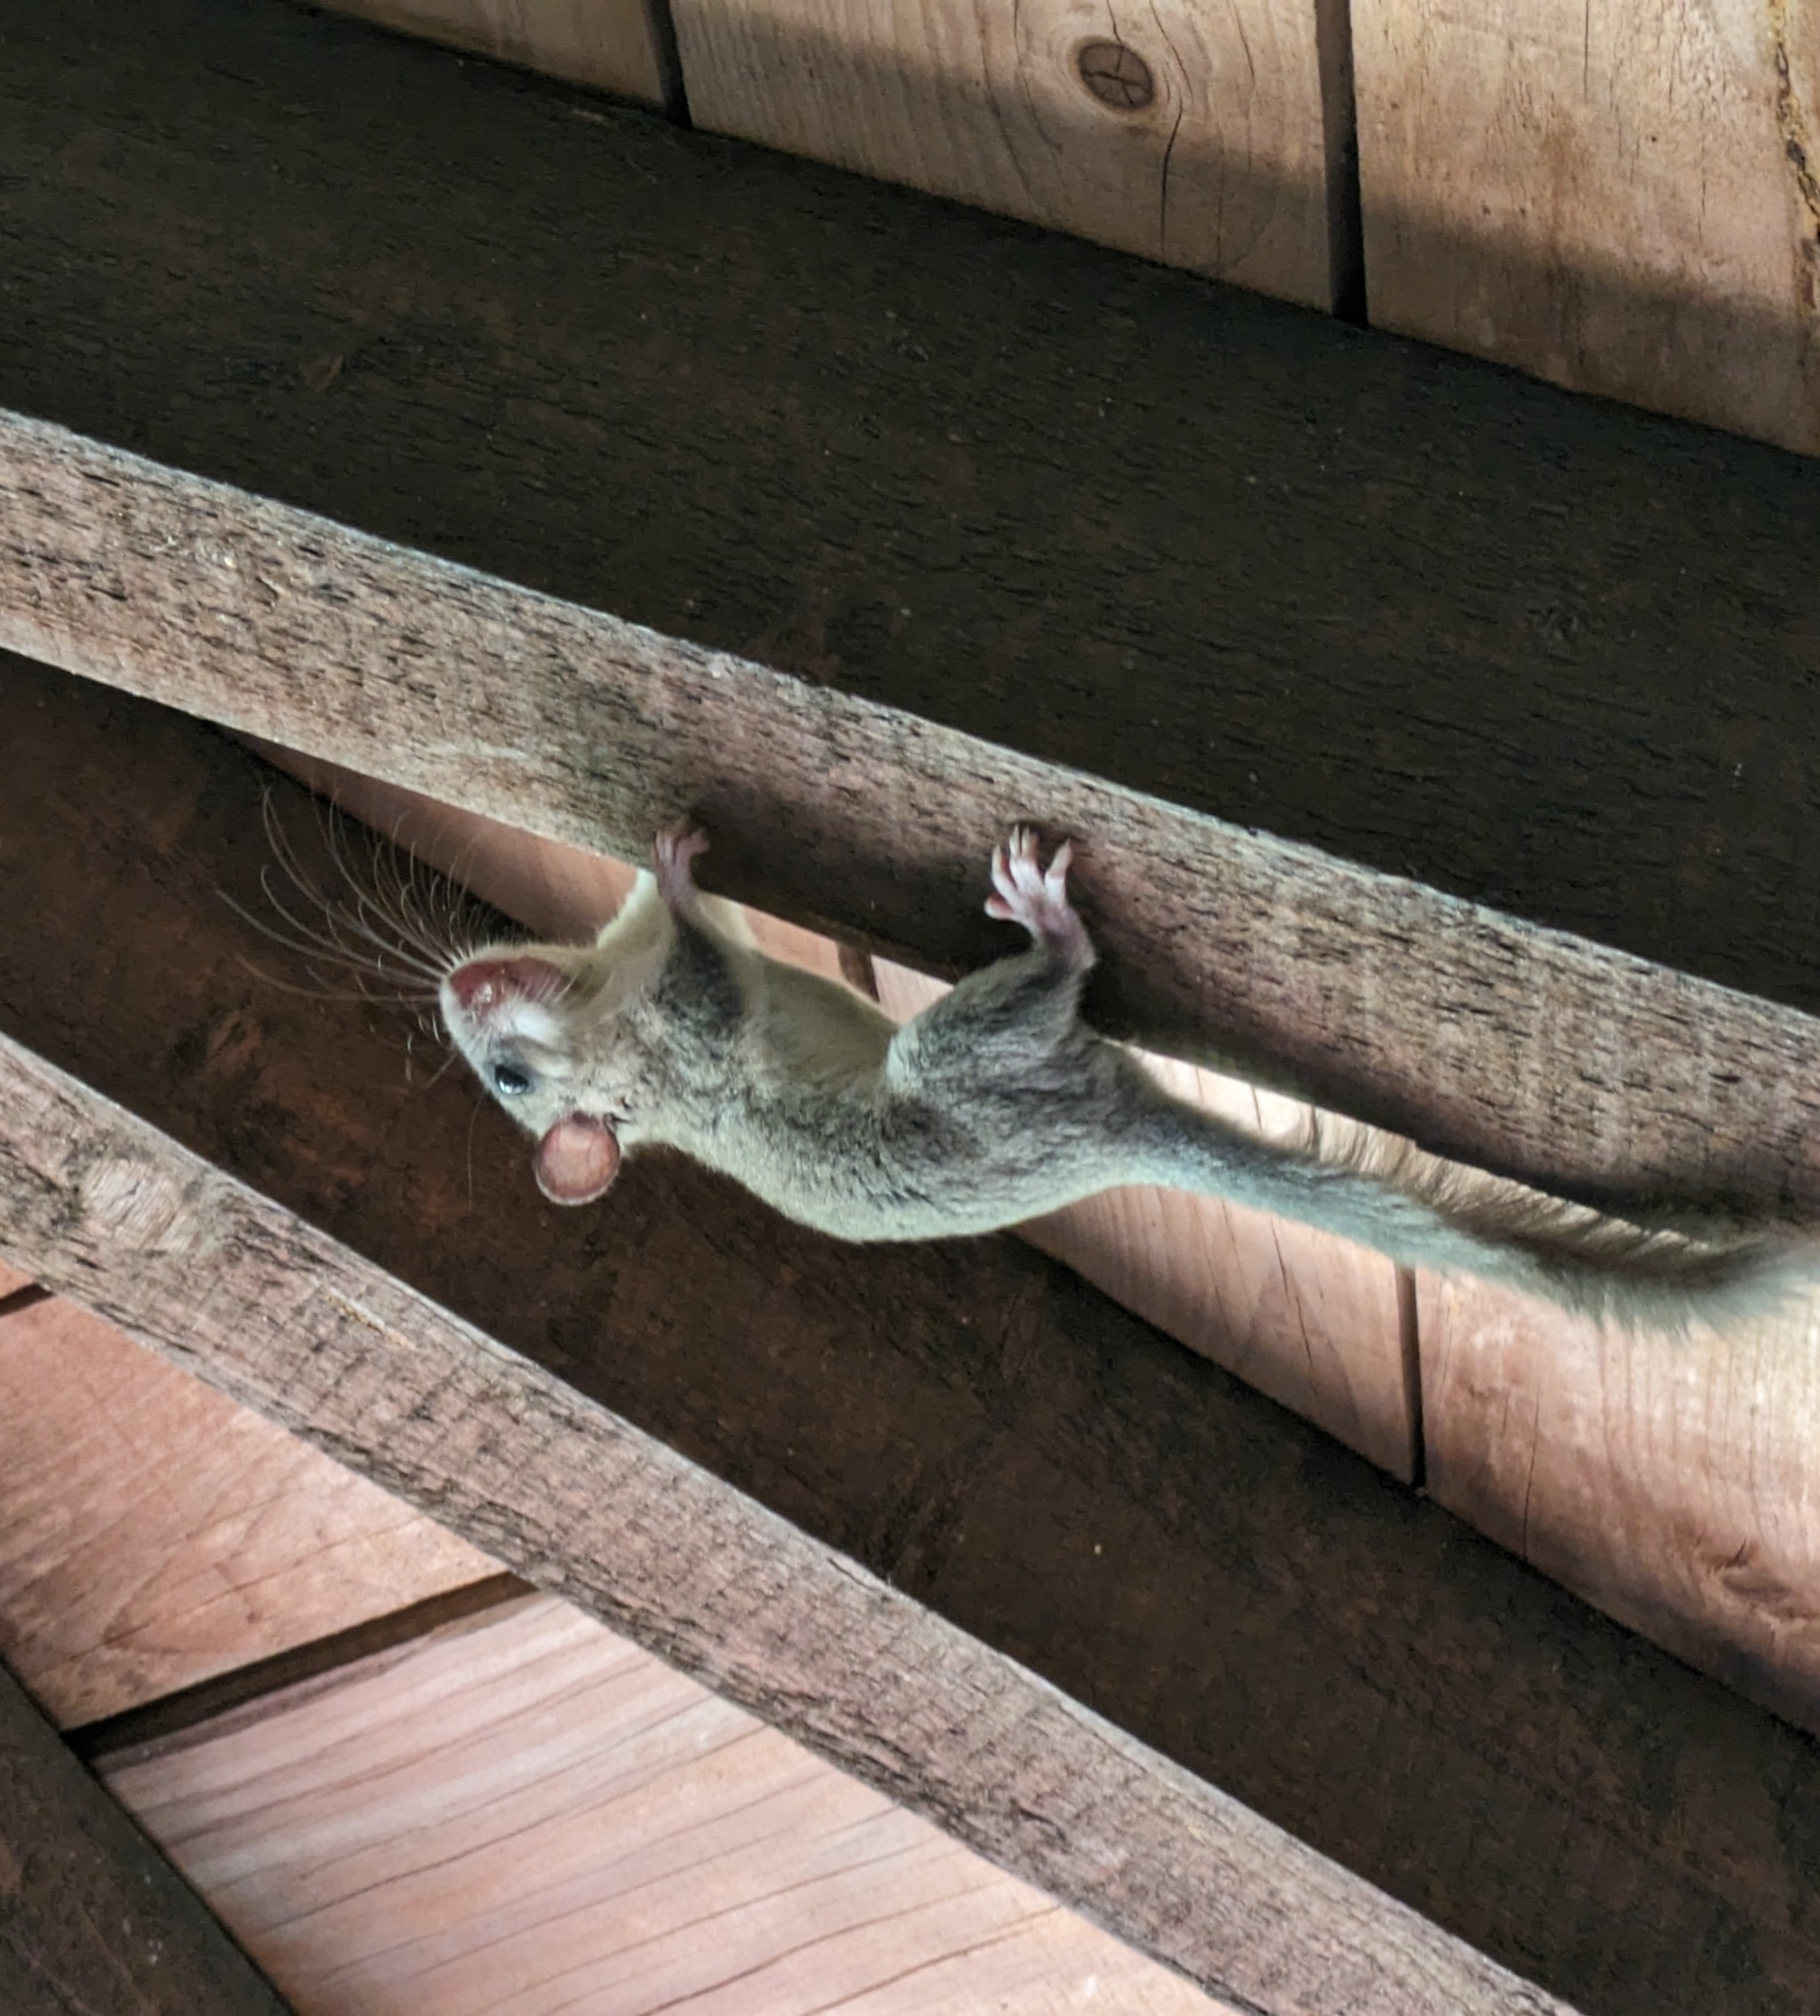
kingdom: Animalia
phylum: Chordata
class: Mammalia
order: Rodentia
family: Gliridae
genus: Glis
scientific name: Glis glis
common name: Fat dormouse
